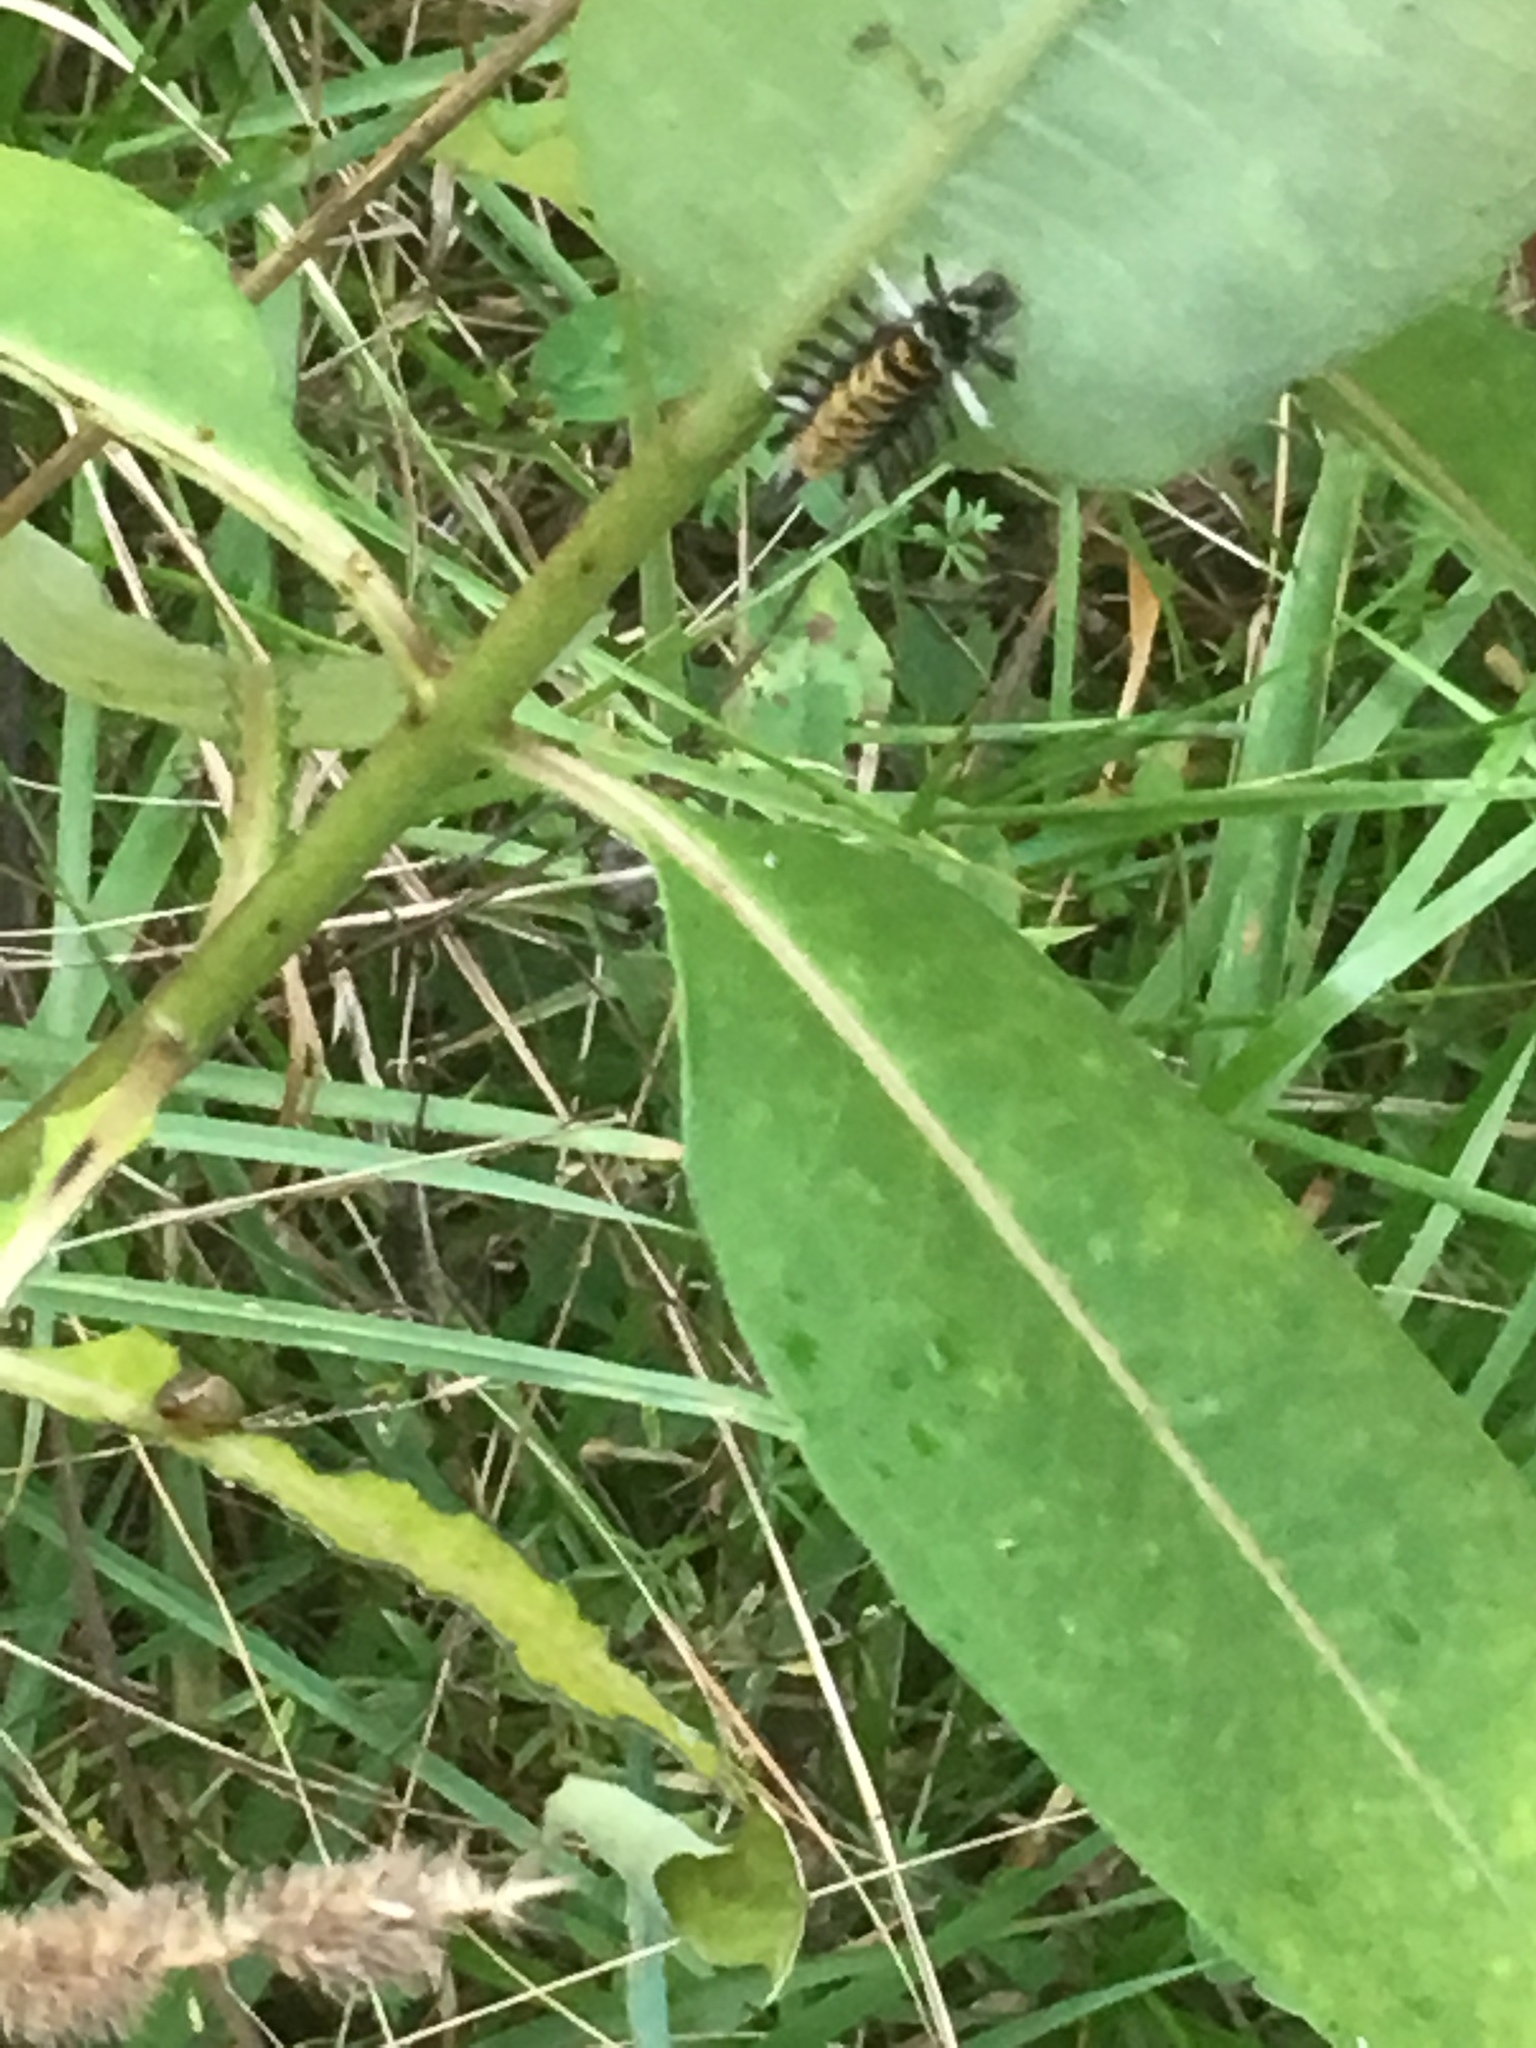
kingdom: Animalia
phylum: Arthropoda
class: Insecta
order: Lepidoptera
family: Erebidae
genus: Euchaetes
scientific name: Euchaetes egle
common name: Milkweed tussock moth
